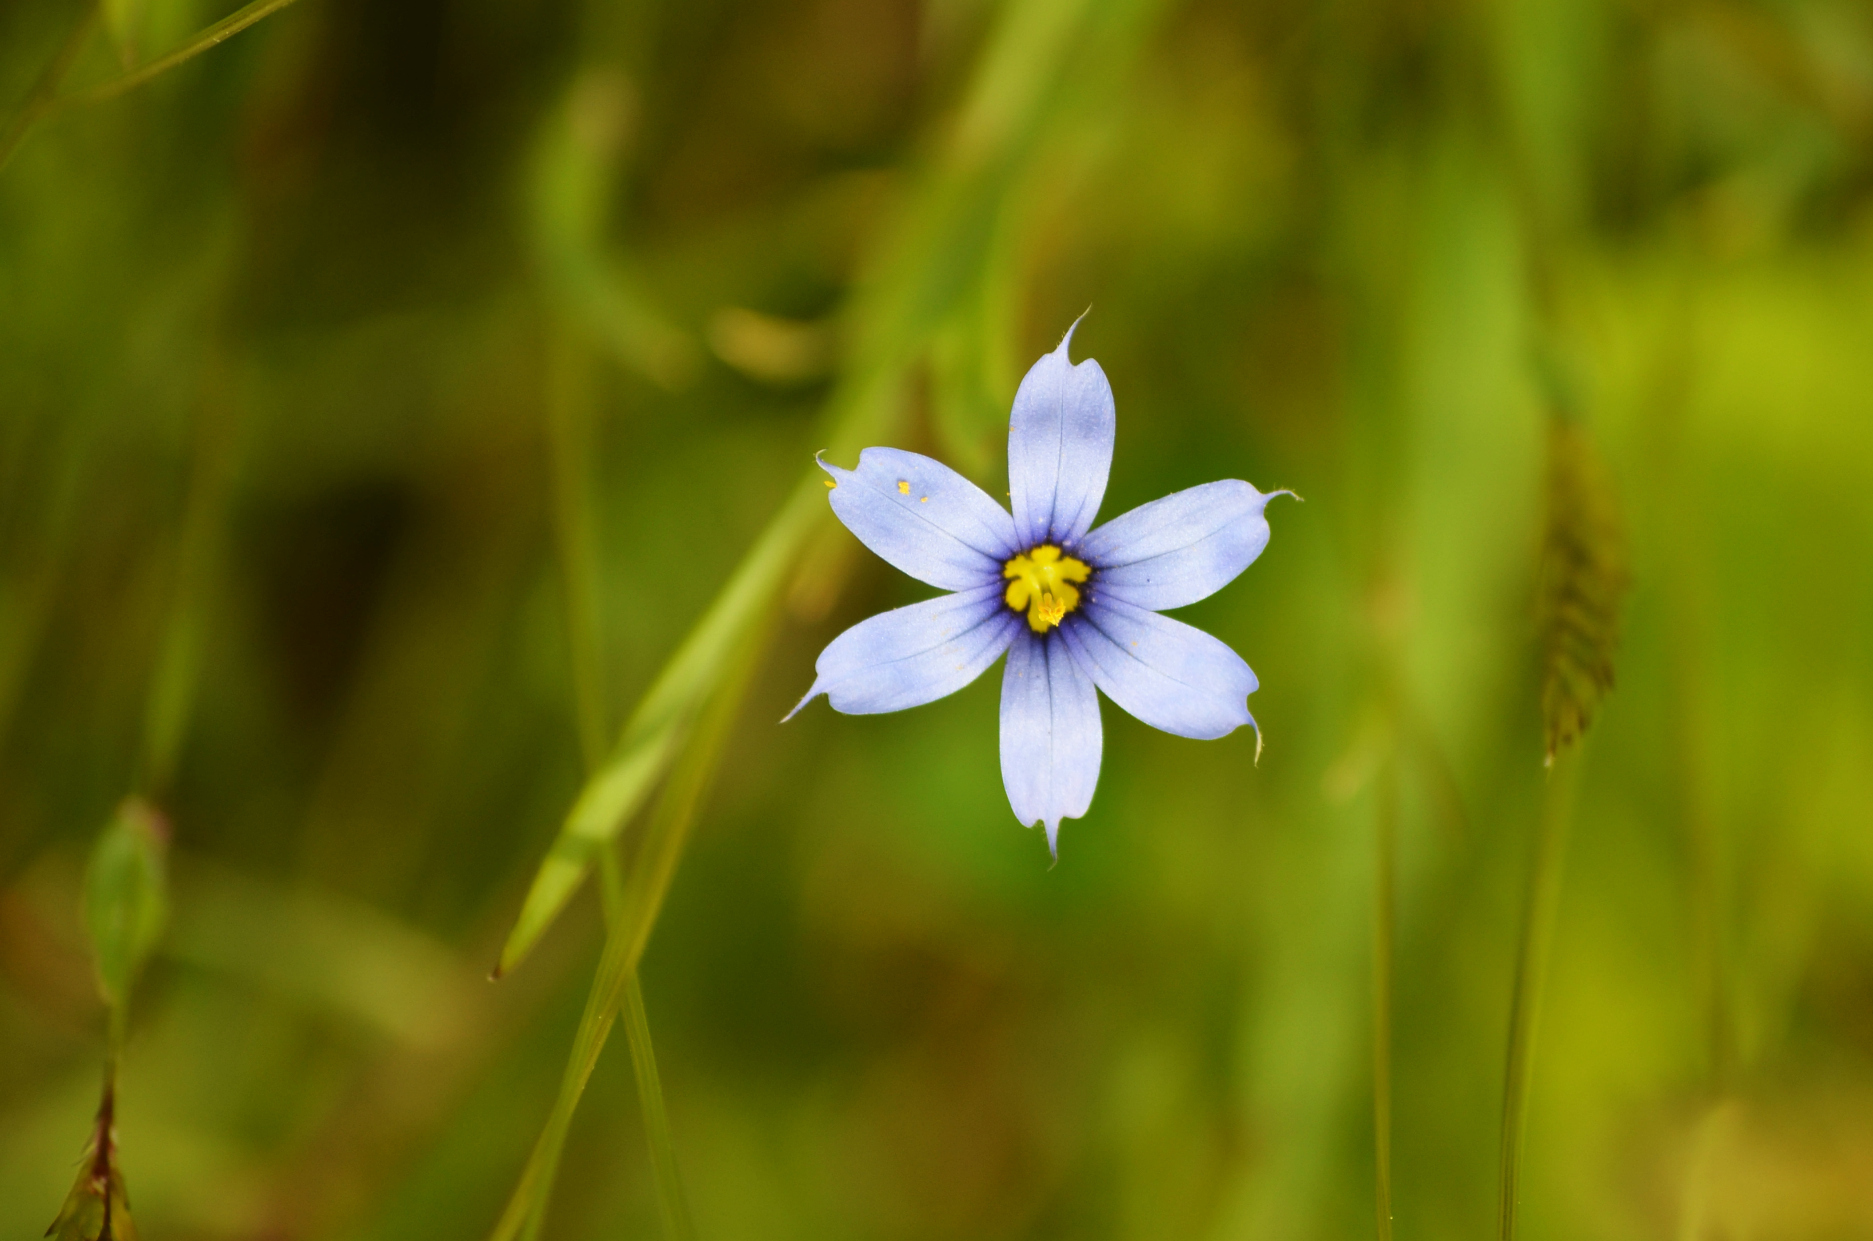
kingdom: Plantae
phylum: Tracheophyta
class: Liliopsida
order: Asparagales
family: Iridaceae
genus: Sisyrinchium
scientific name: Sisyrinchium angustifolium
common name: Narrow-leaf blue-eyed-grass
